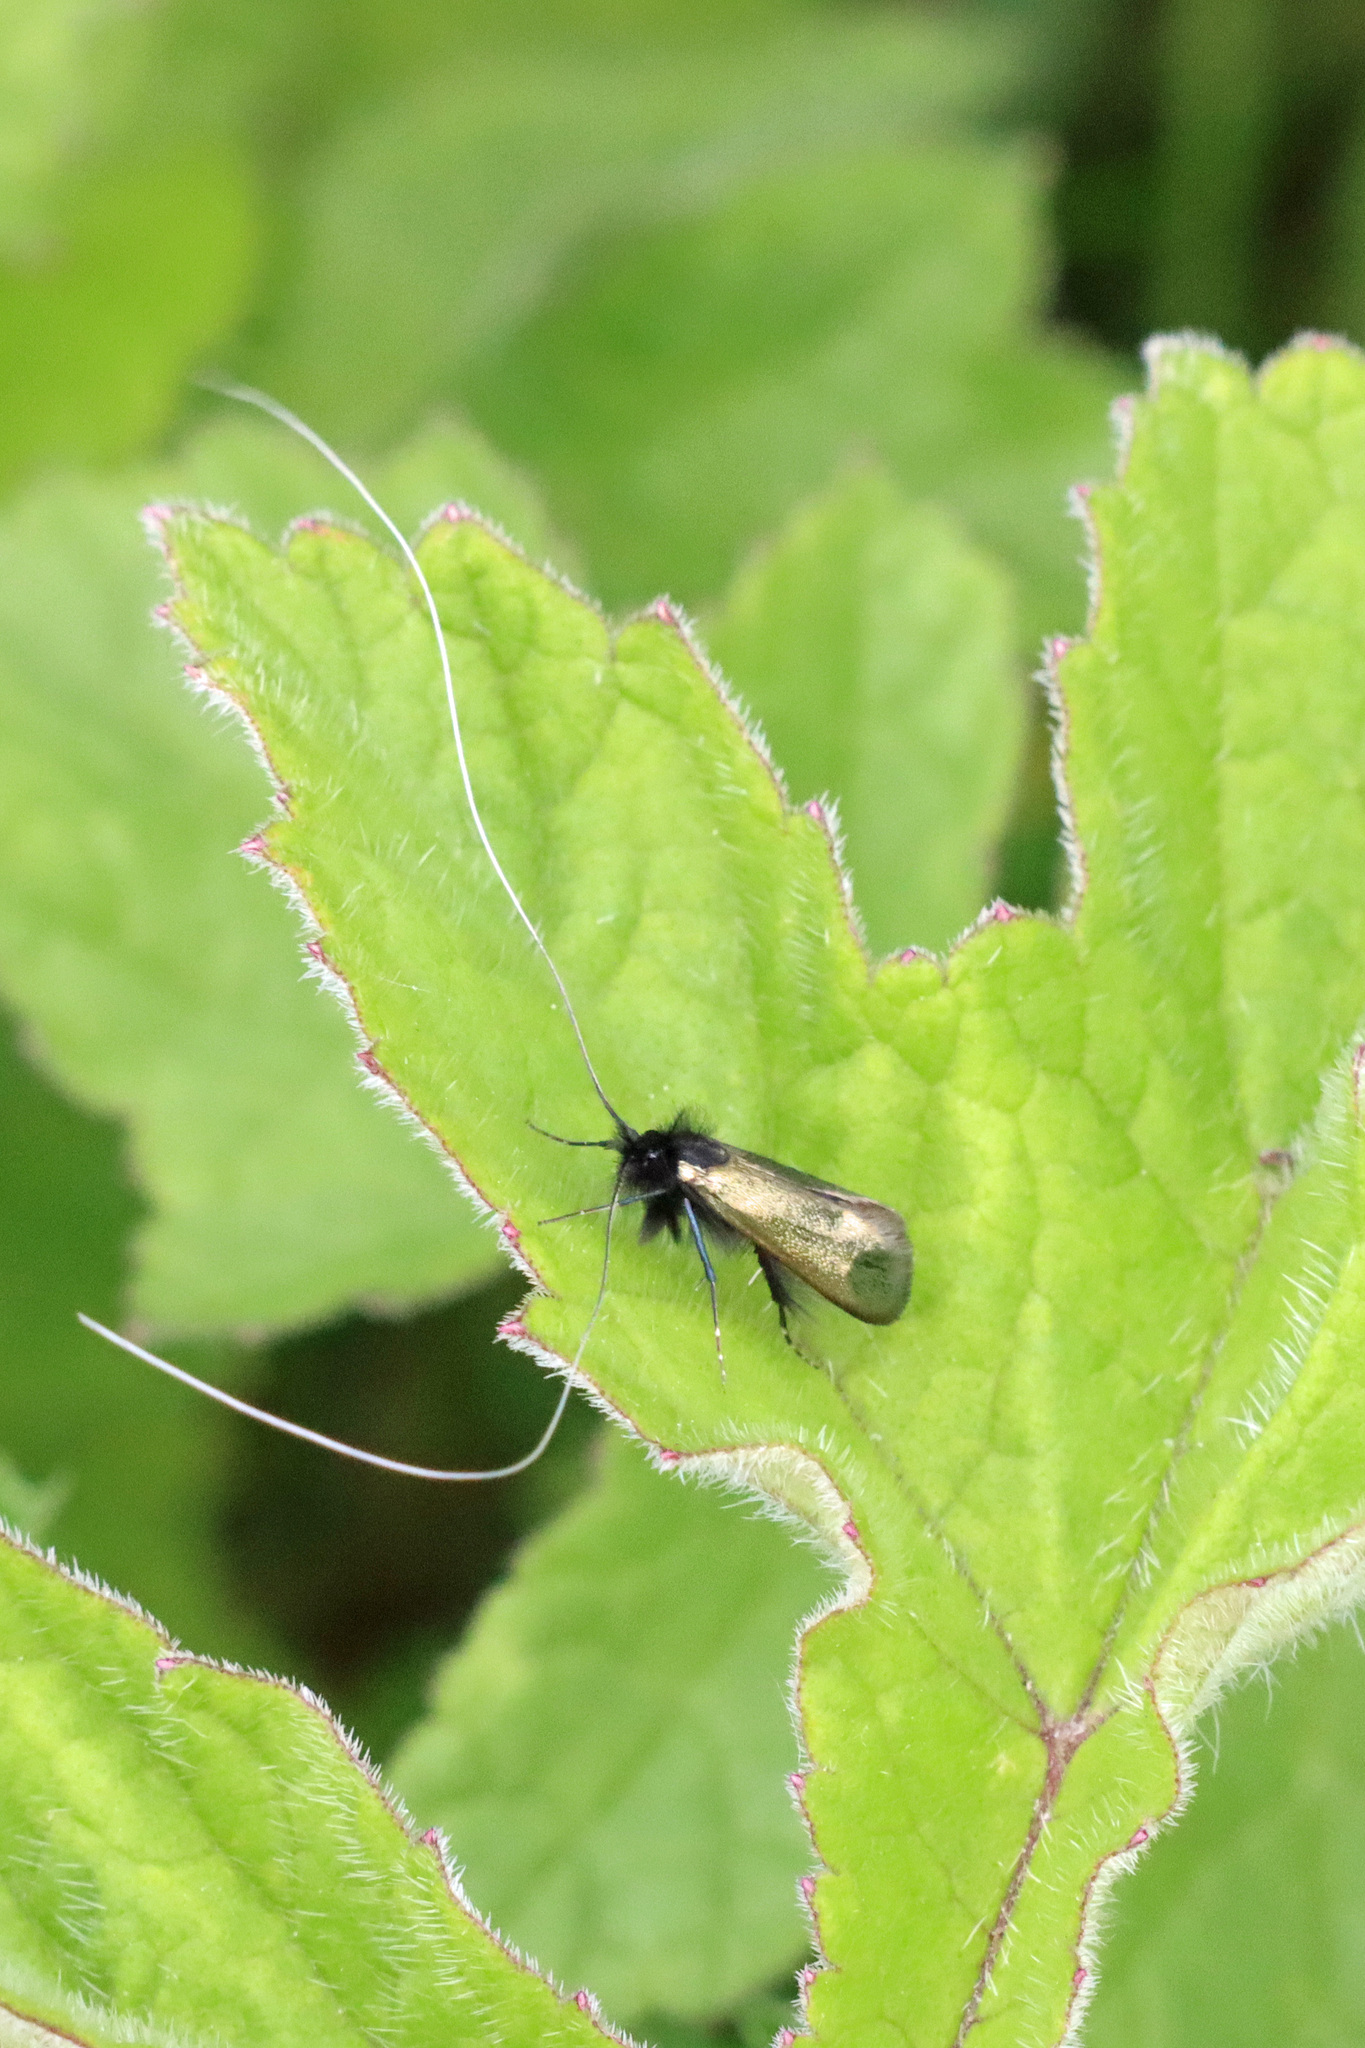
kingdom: Animalia
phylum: Arthropoda
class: Insecta
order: Lepidoptera
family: Adelidae
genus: Adela
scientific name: Adela viridella
